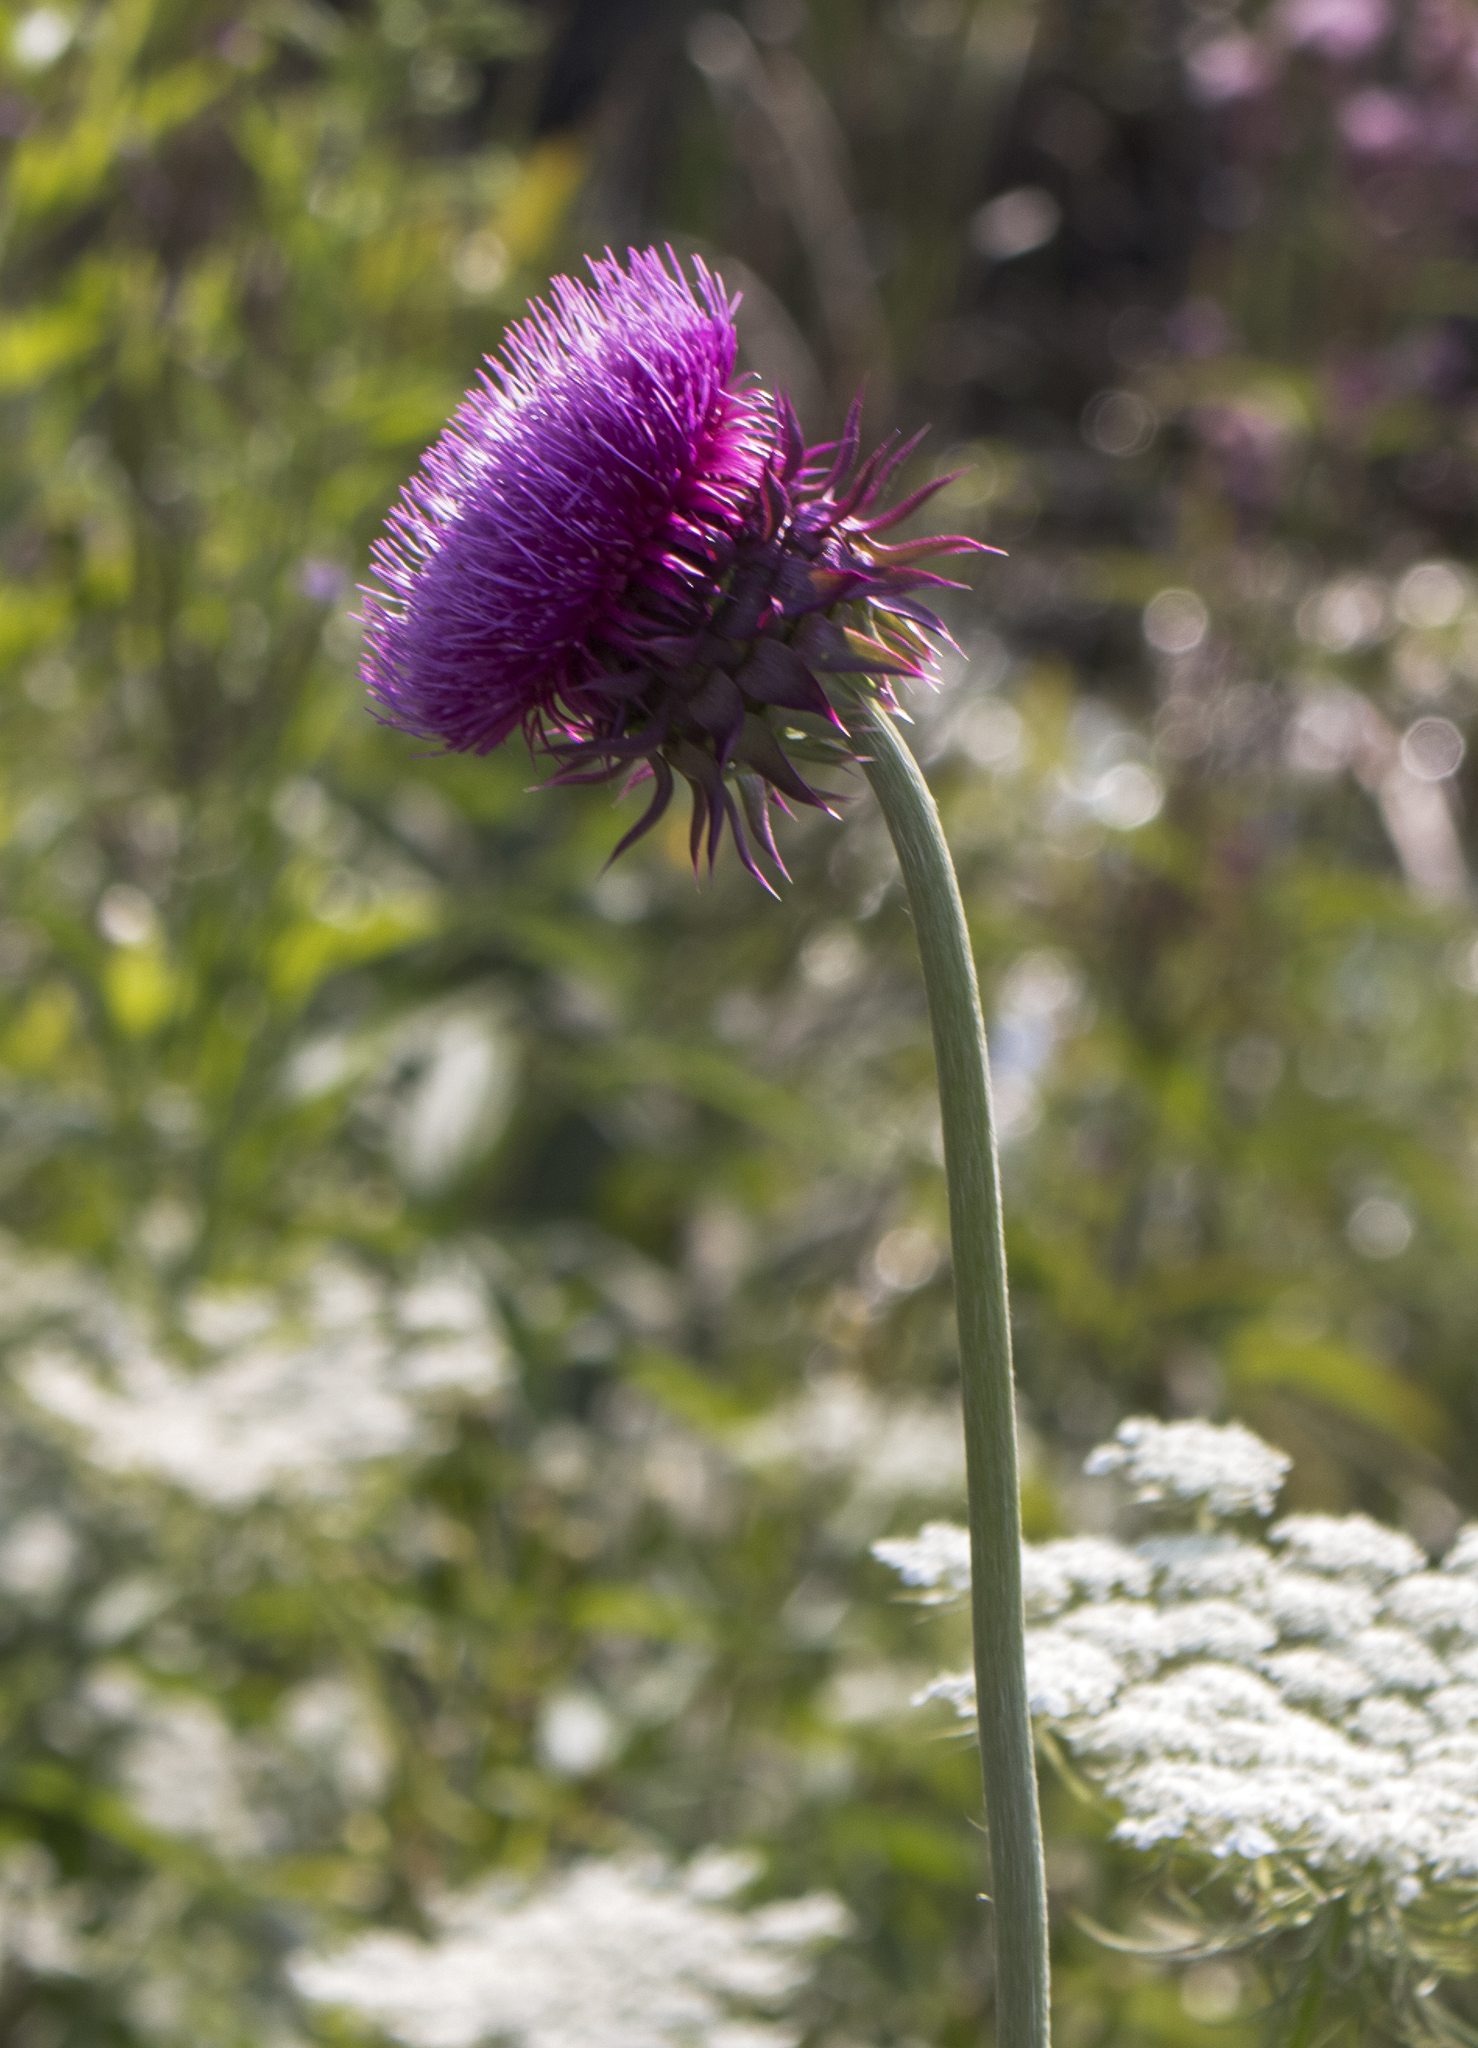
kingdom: Plantae
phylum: Tracheophyta
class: Magnoliopsida
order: Asterales
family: Asteraceae
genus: Carduus
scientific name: Carduus nutans
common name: Musk thistle
